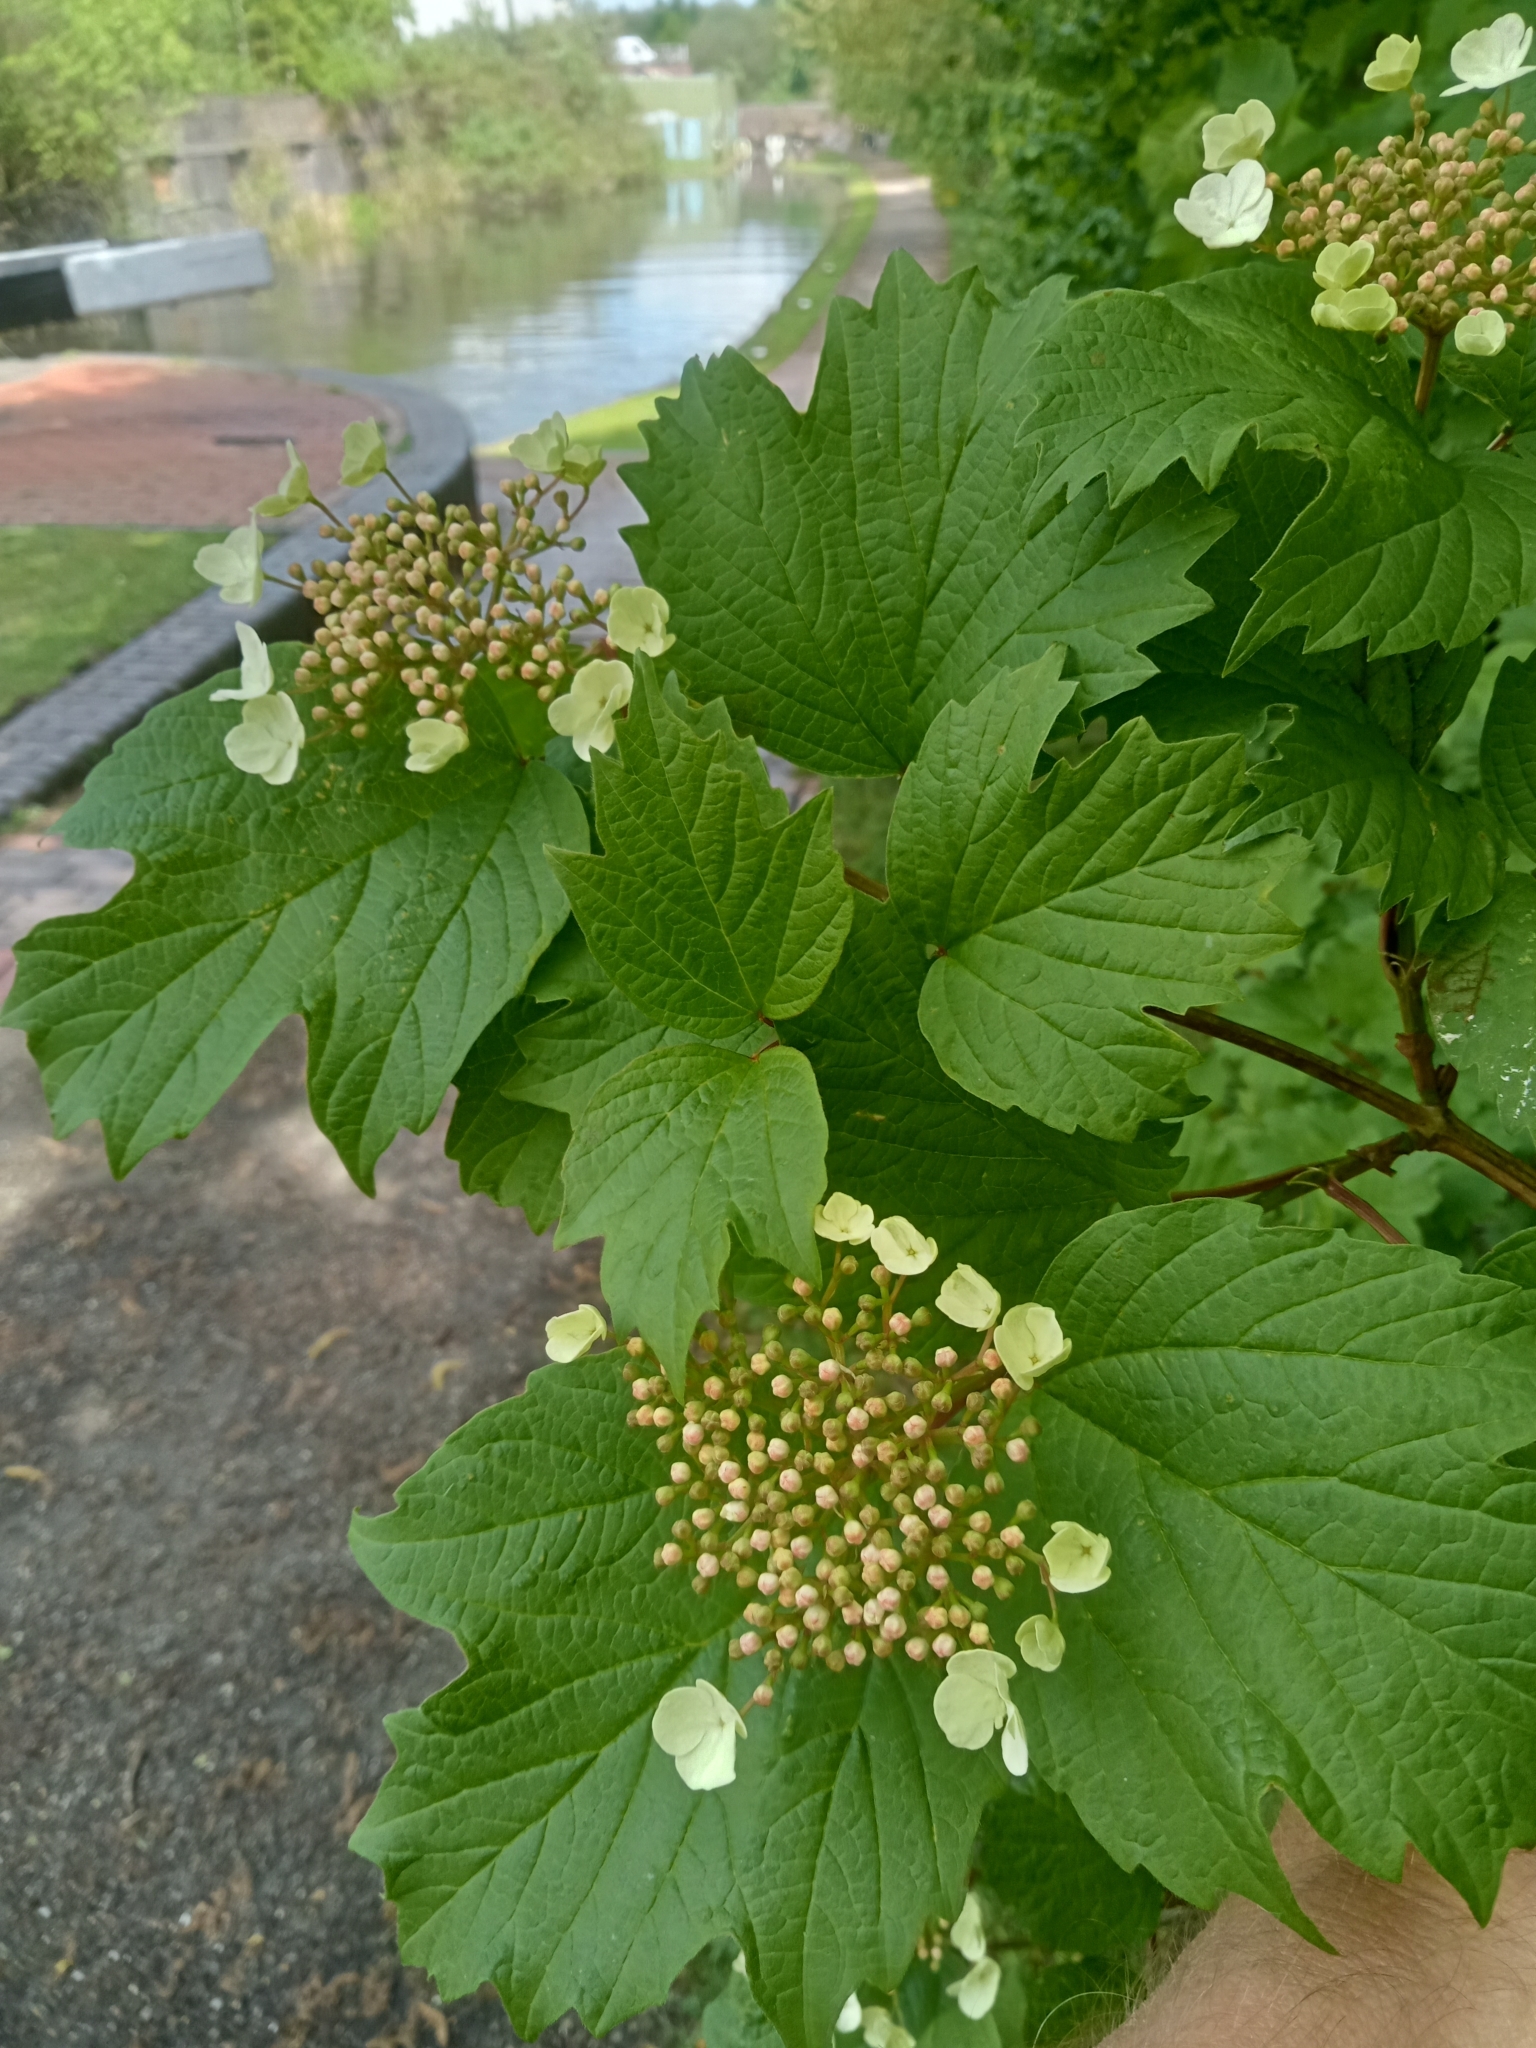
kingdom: Plantae
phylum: Tracheophyta
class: Magnoliopsida
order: Dipsacales
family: Viburnaceae
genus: Viburnum
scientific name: Viburnum opulus
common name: Guelder-rose
